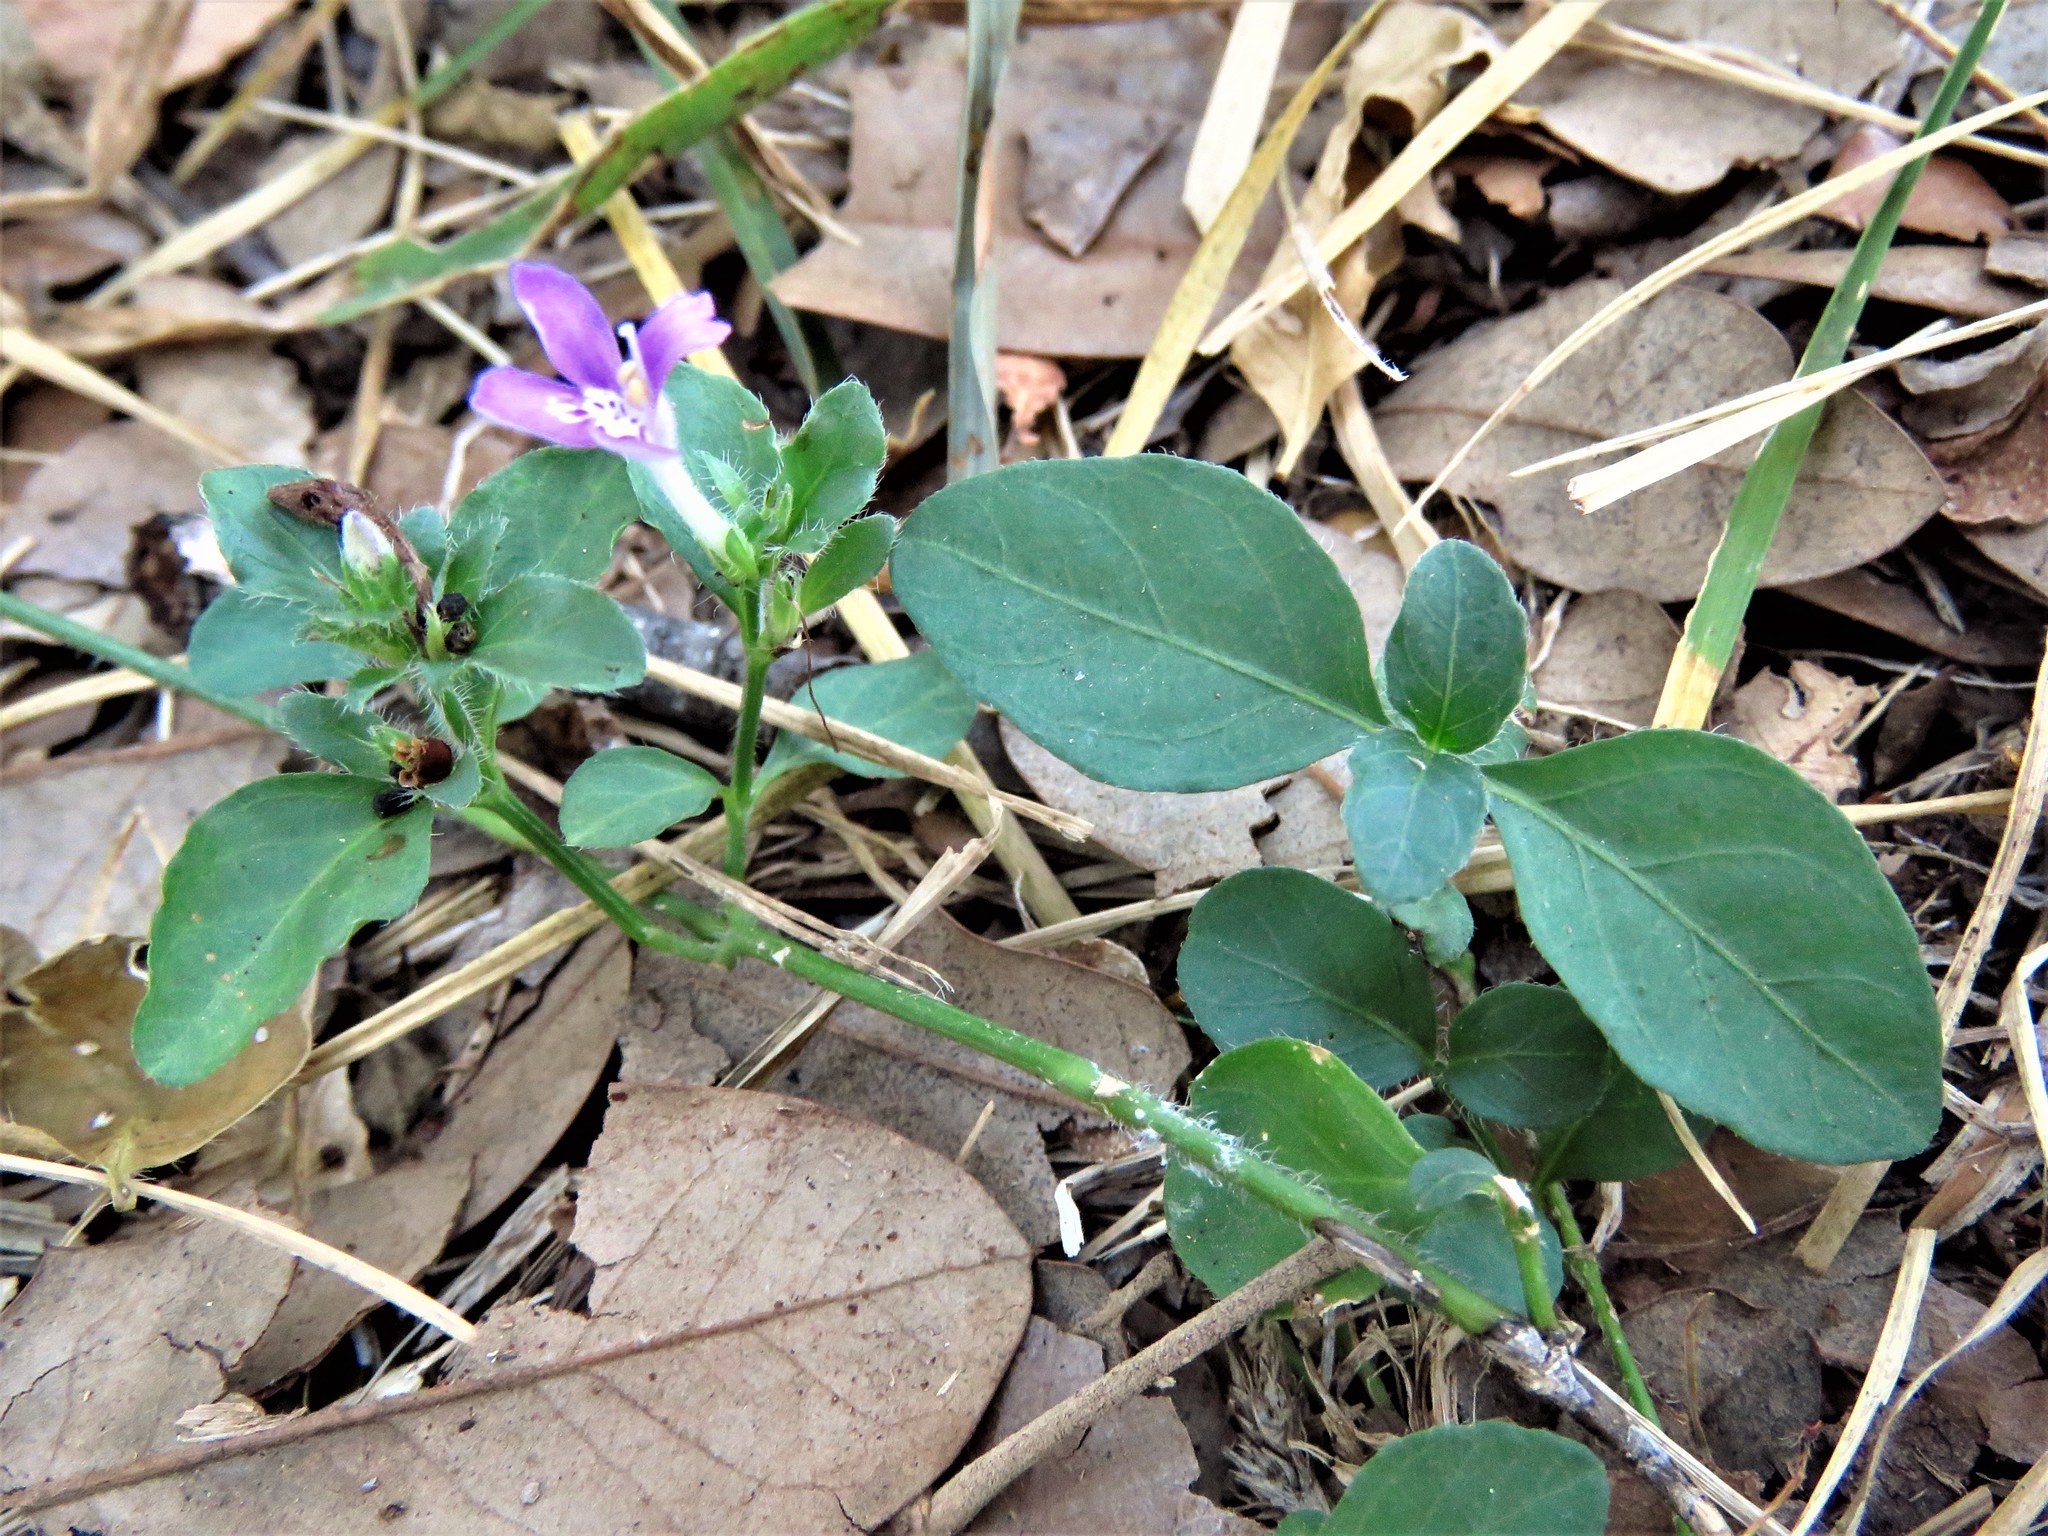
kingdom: Plantae
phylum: Tracheophyta
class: Magnoliopsida
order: Lamiales
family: Acanthaceae
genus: Justicia
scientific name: Justicia pilosella
